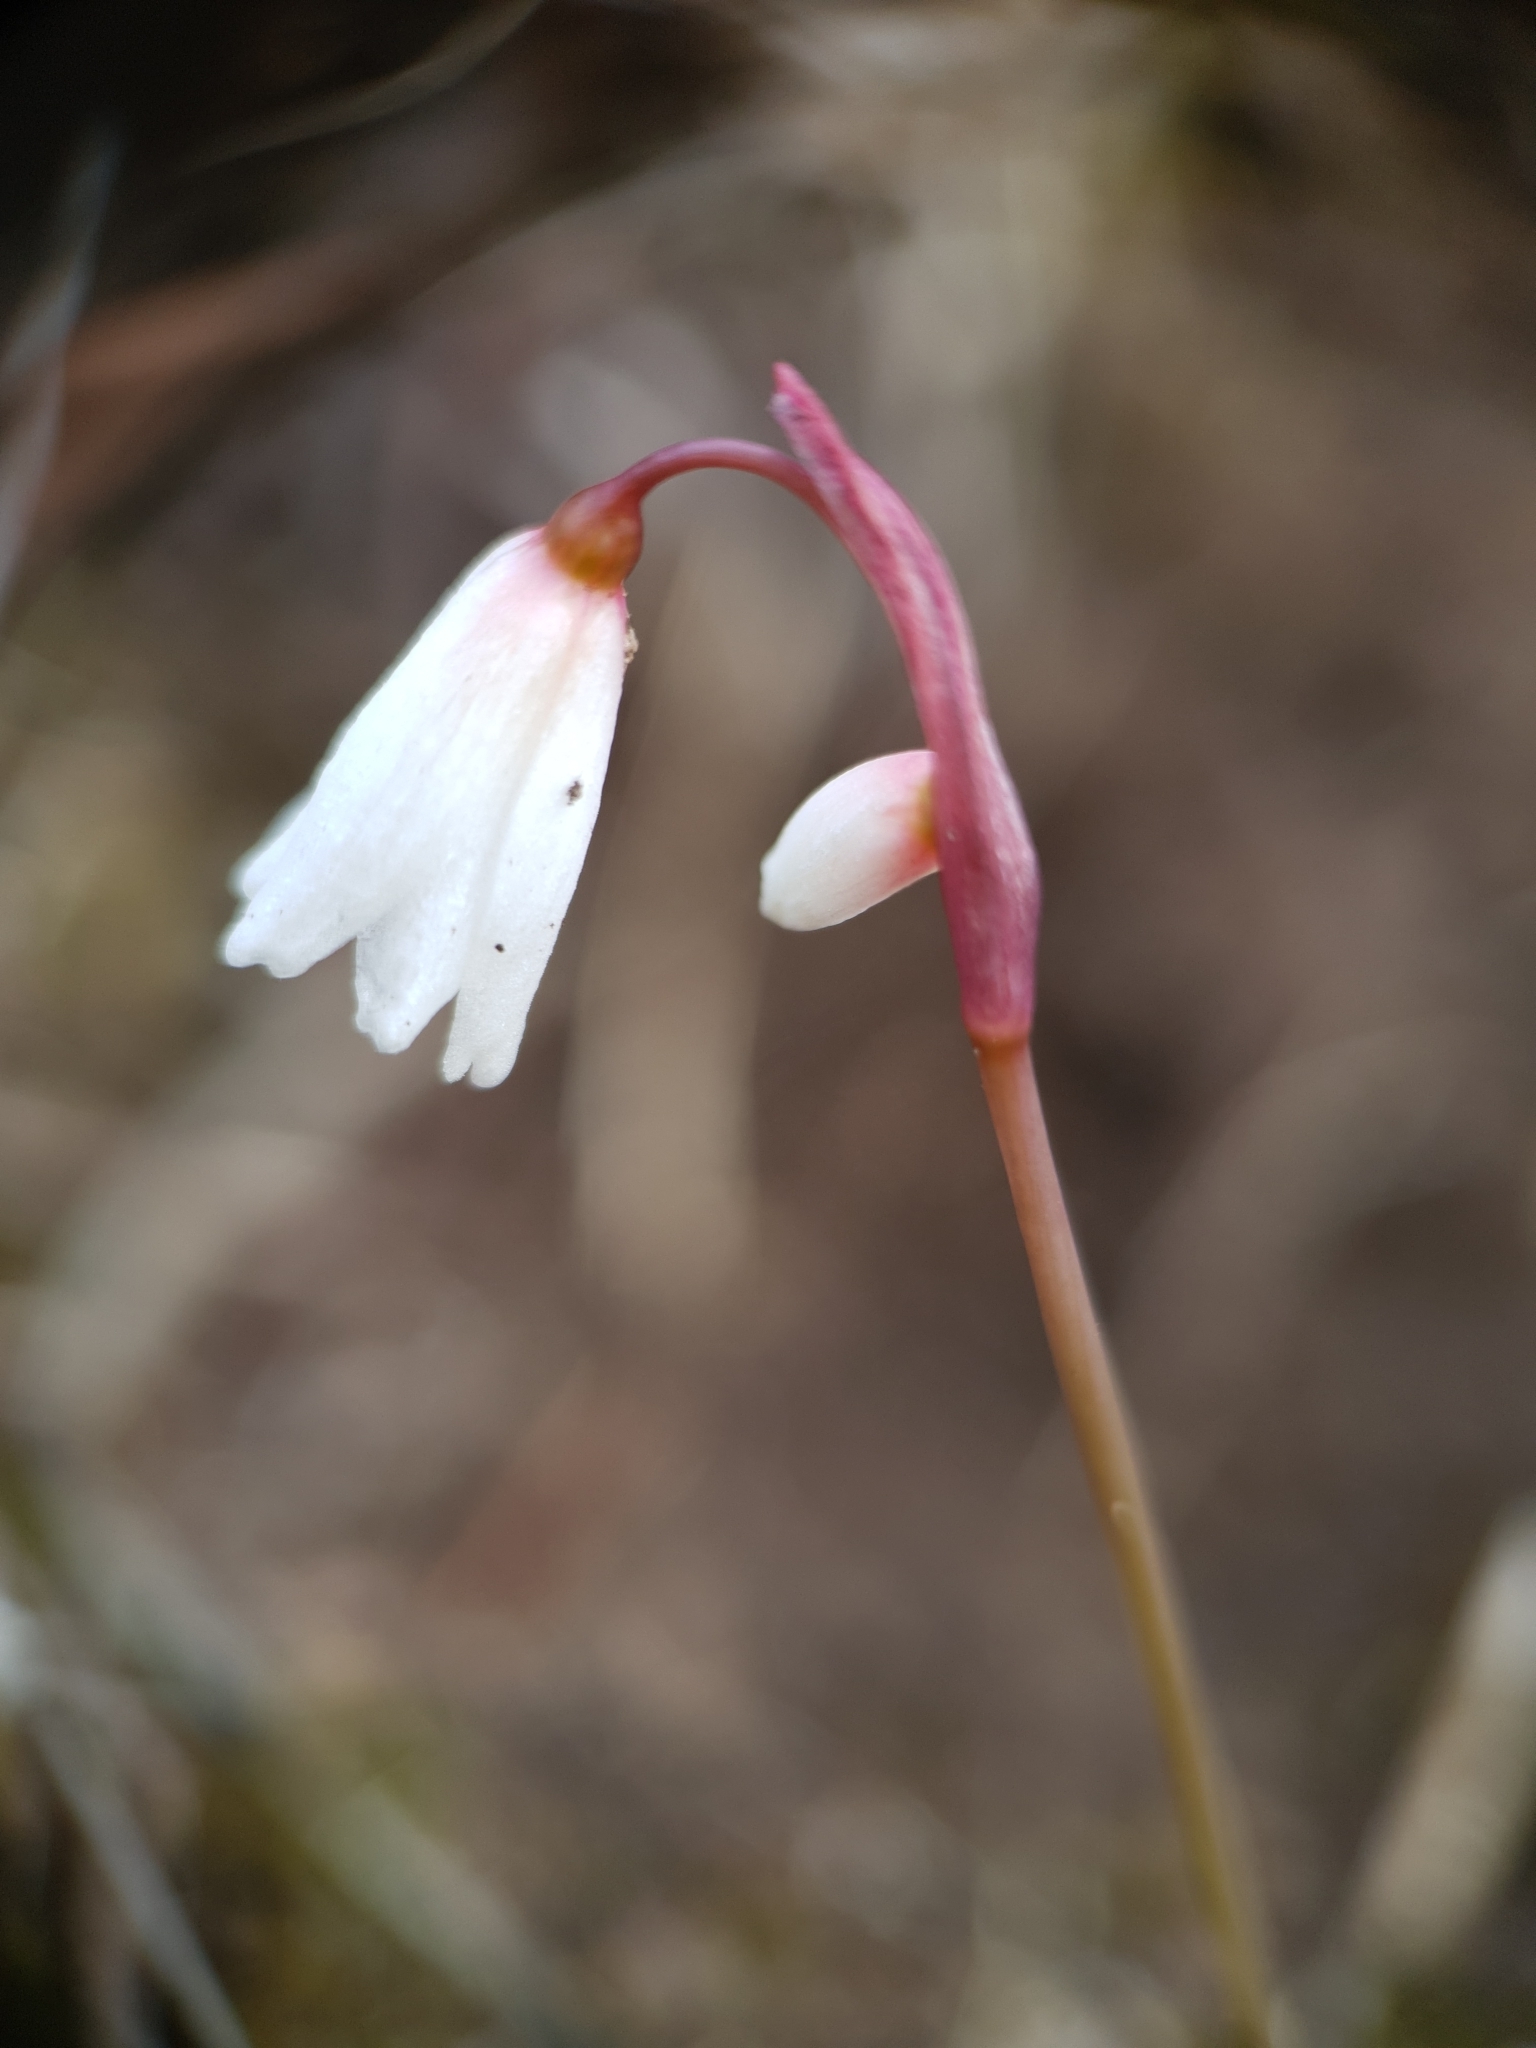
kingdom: Plantae
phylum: Tracheophyta
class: Liliopsida
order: Asparagales
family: Amaryllidaceae
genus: Acis
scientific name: Acis autumnalis
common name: Autumn snowflake
